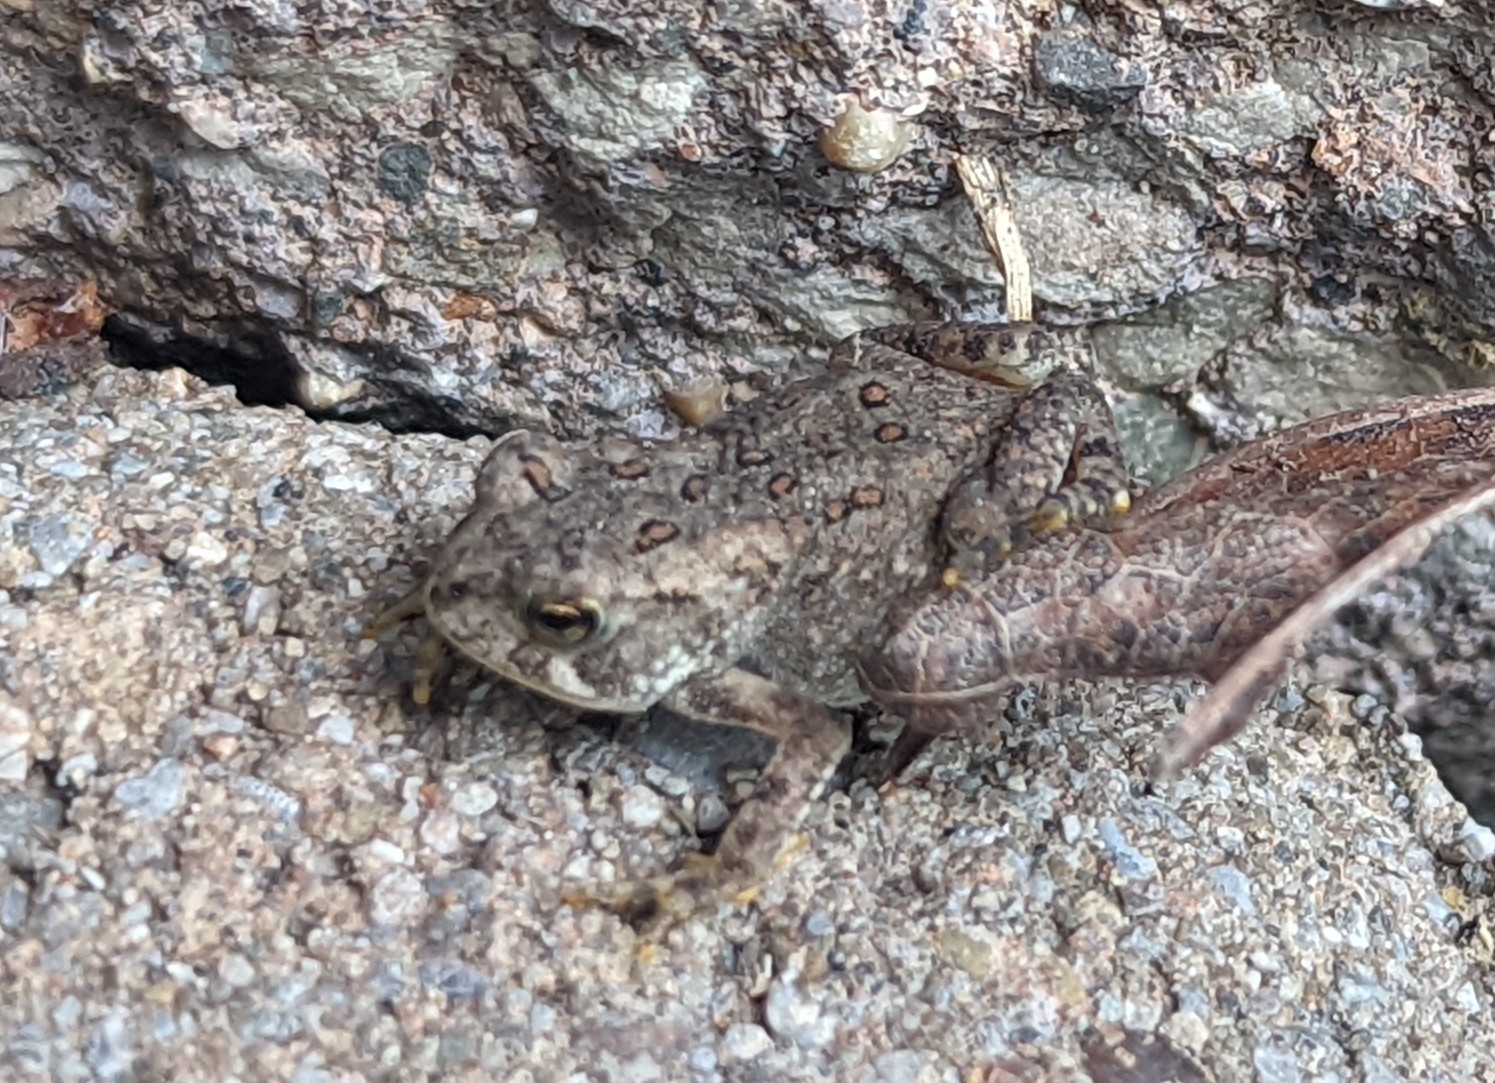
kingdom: Animalia
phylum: Chordata
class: Amphibia
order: Anura
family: Bufonidae
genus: Anaxyrus
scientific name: Anaxyrus americanus
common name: American toad
